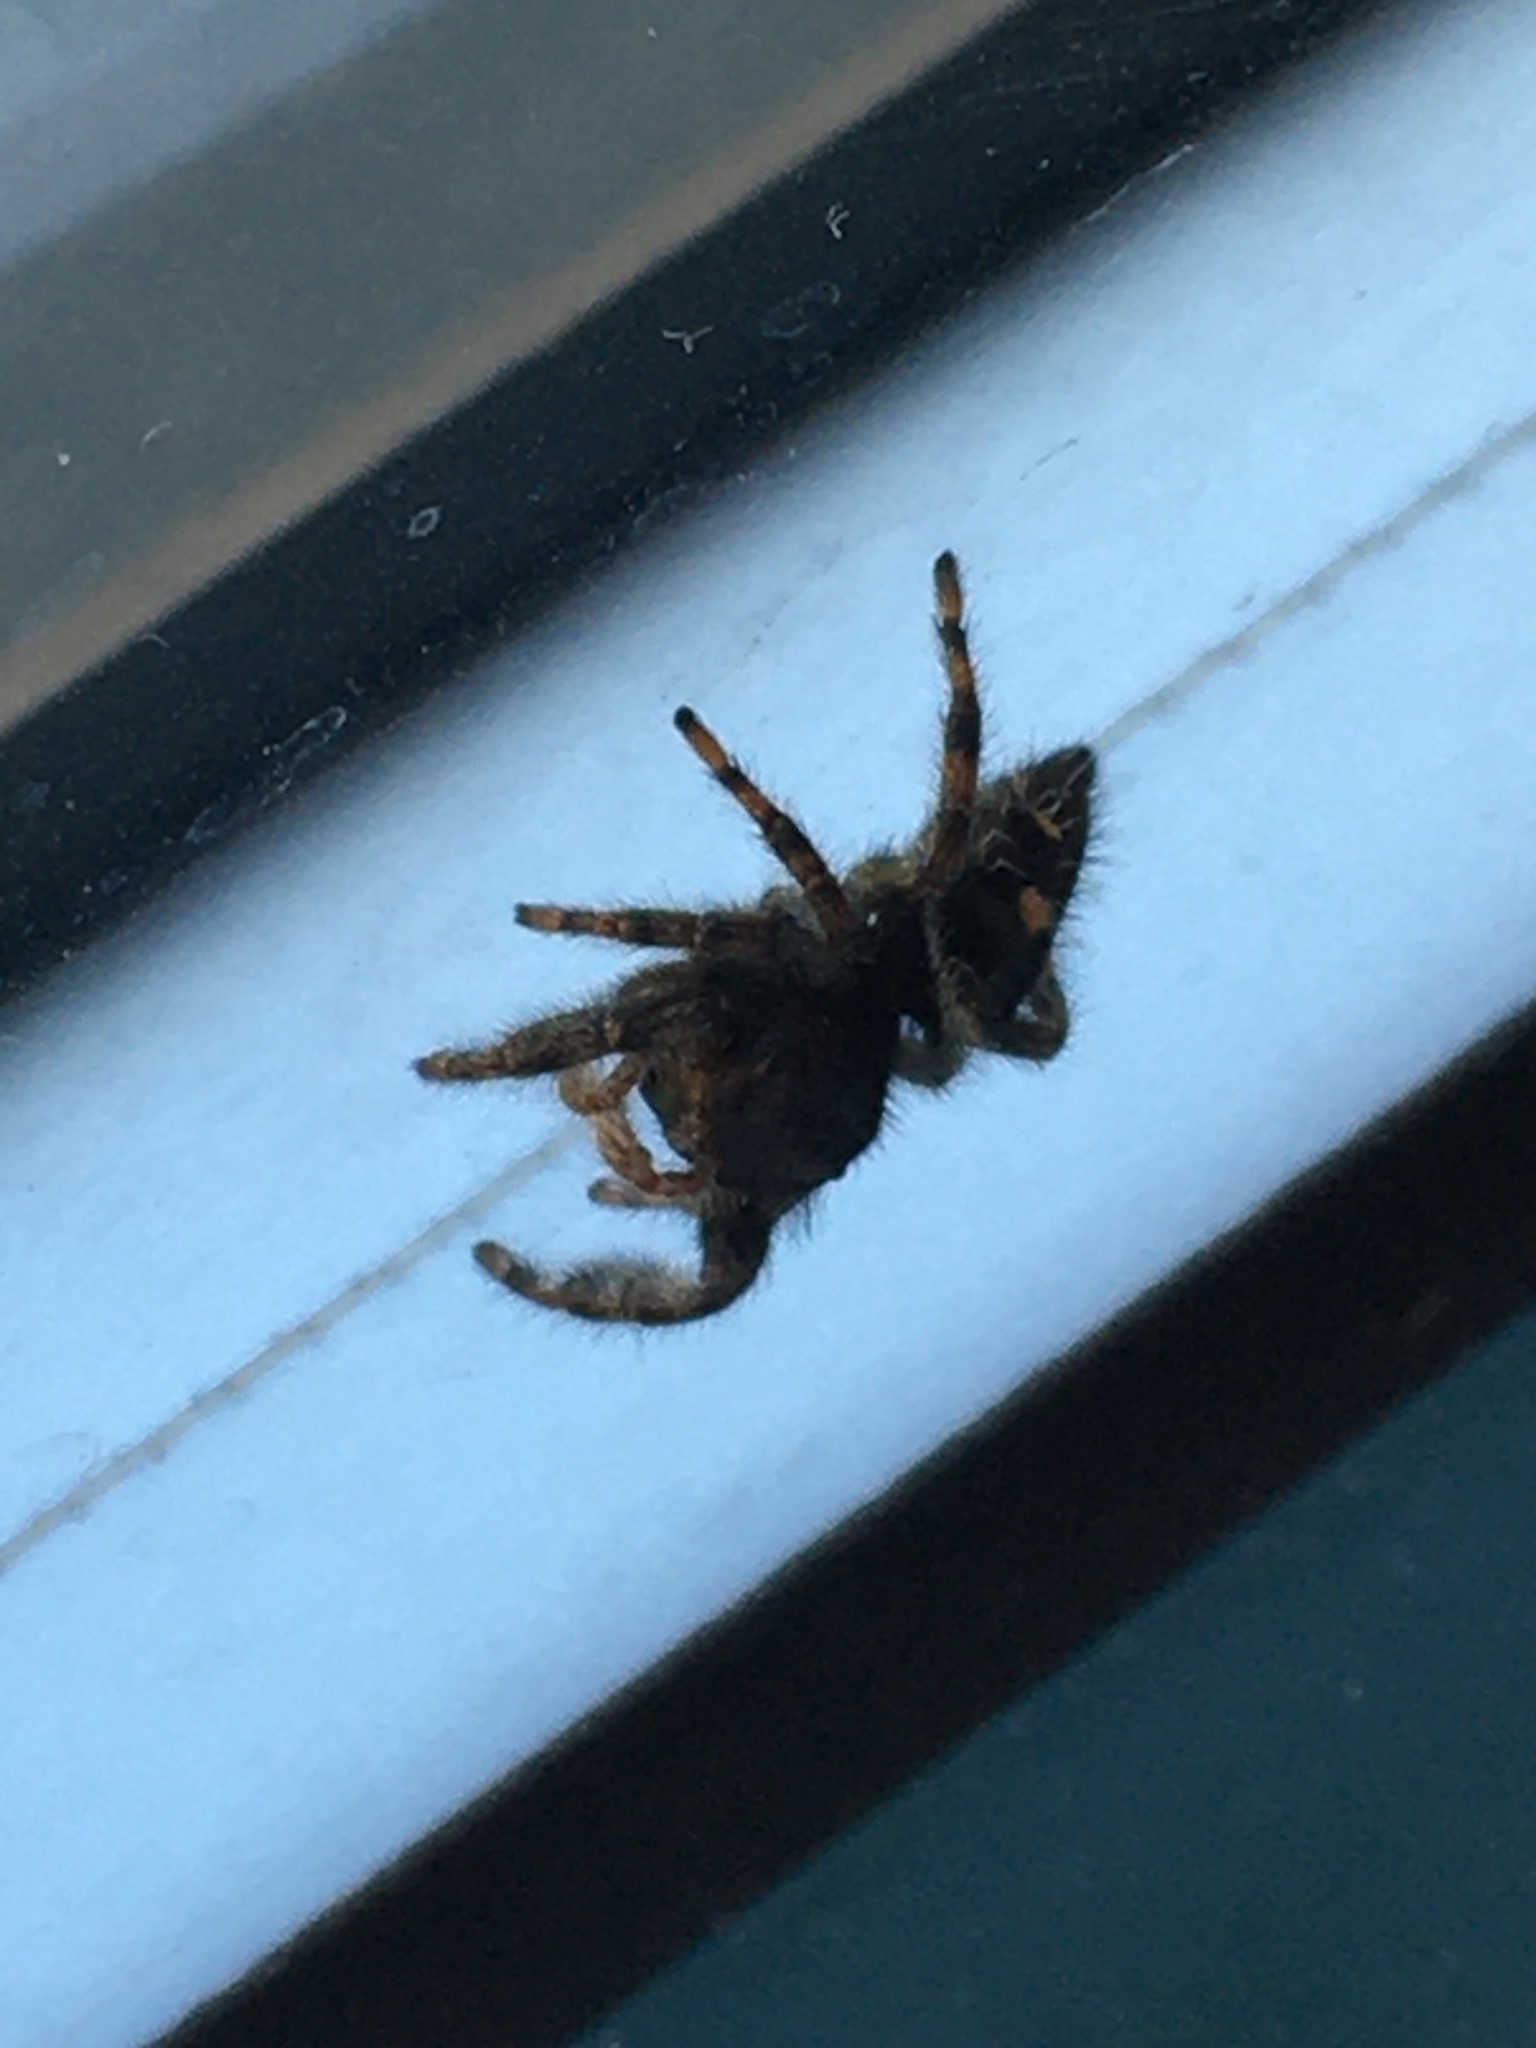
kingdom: Animalia
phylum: Arthropoda
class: Arachnida
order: Araneae
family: Salticidae
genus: Phidippus
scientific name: Phidippus audax
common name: Bold jumper
